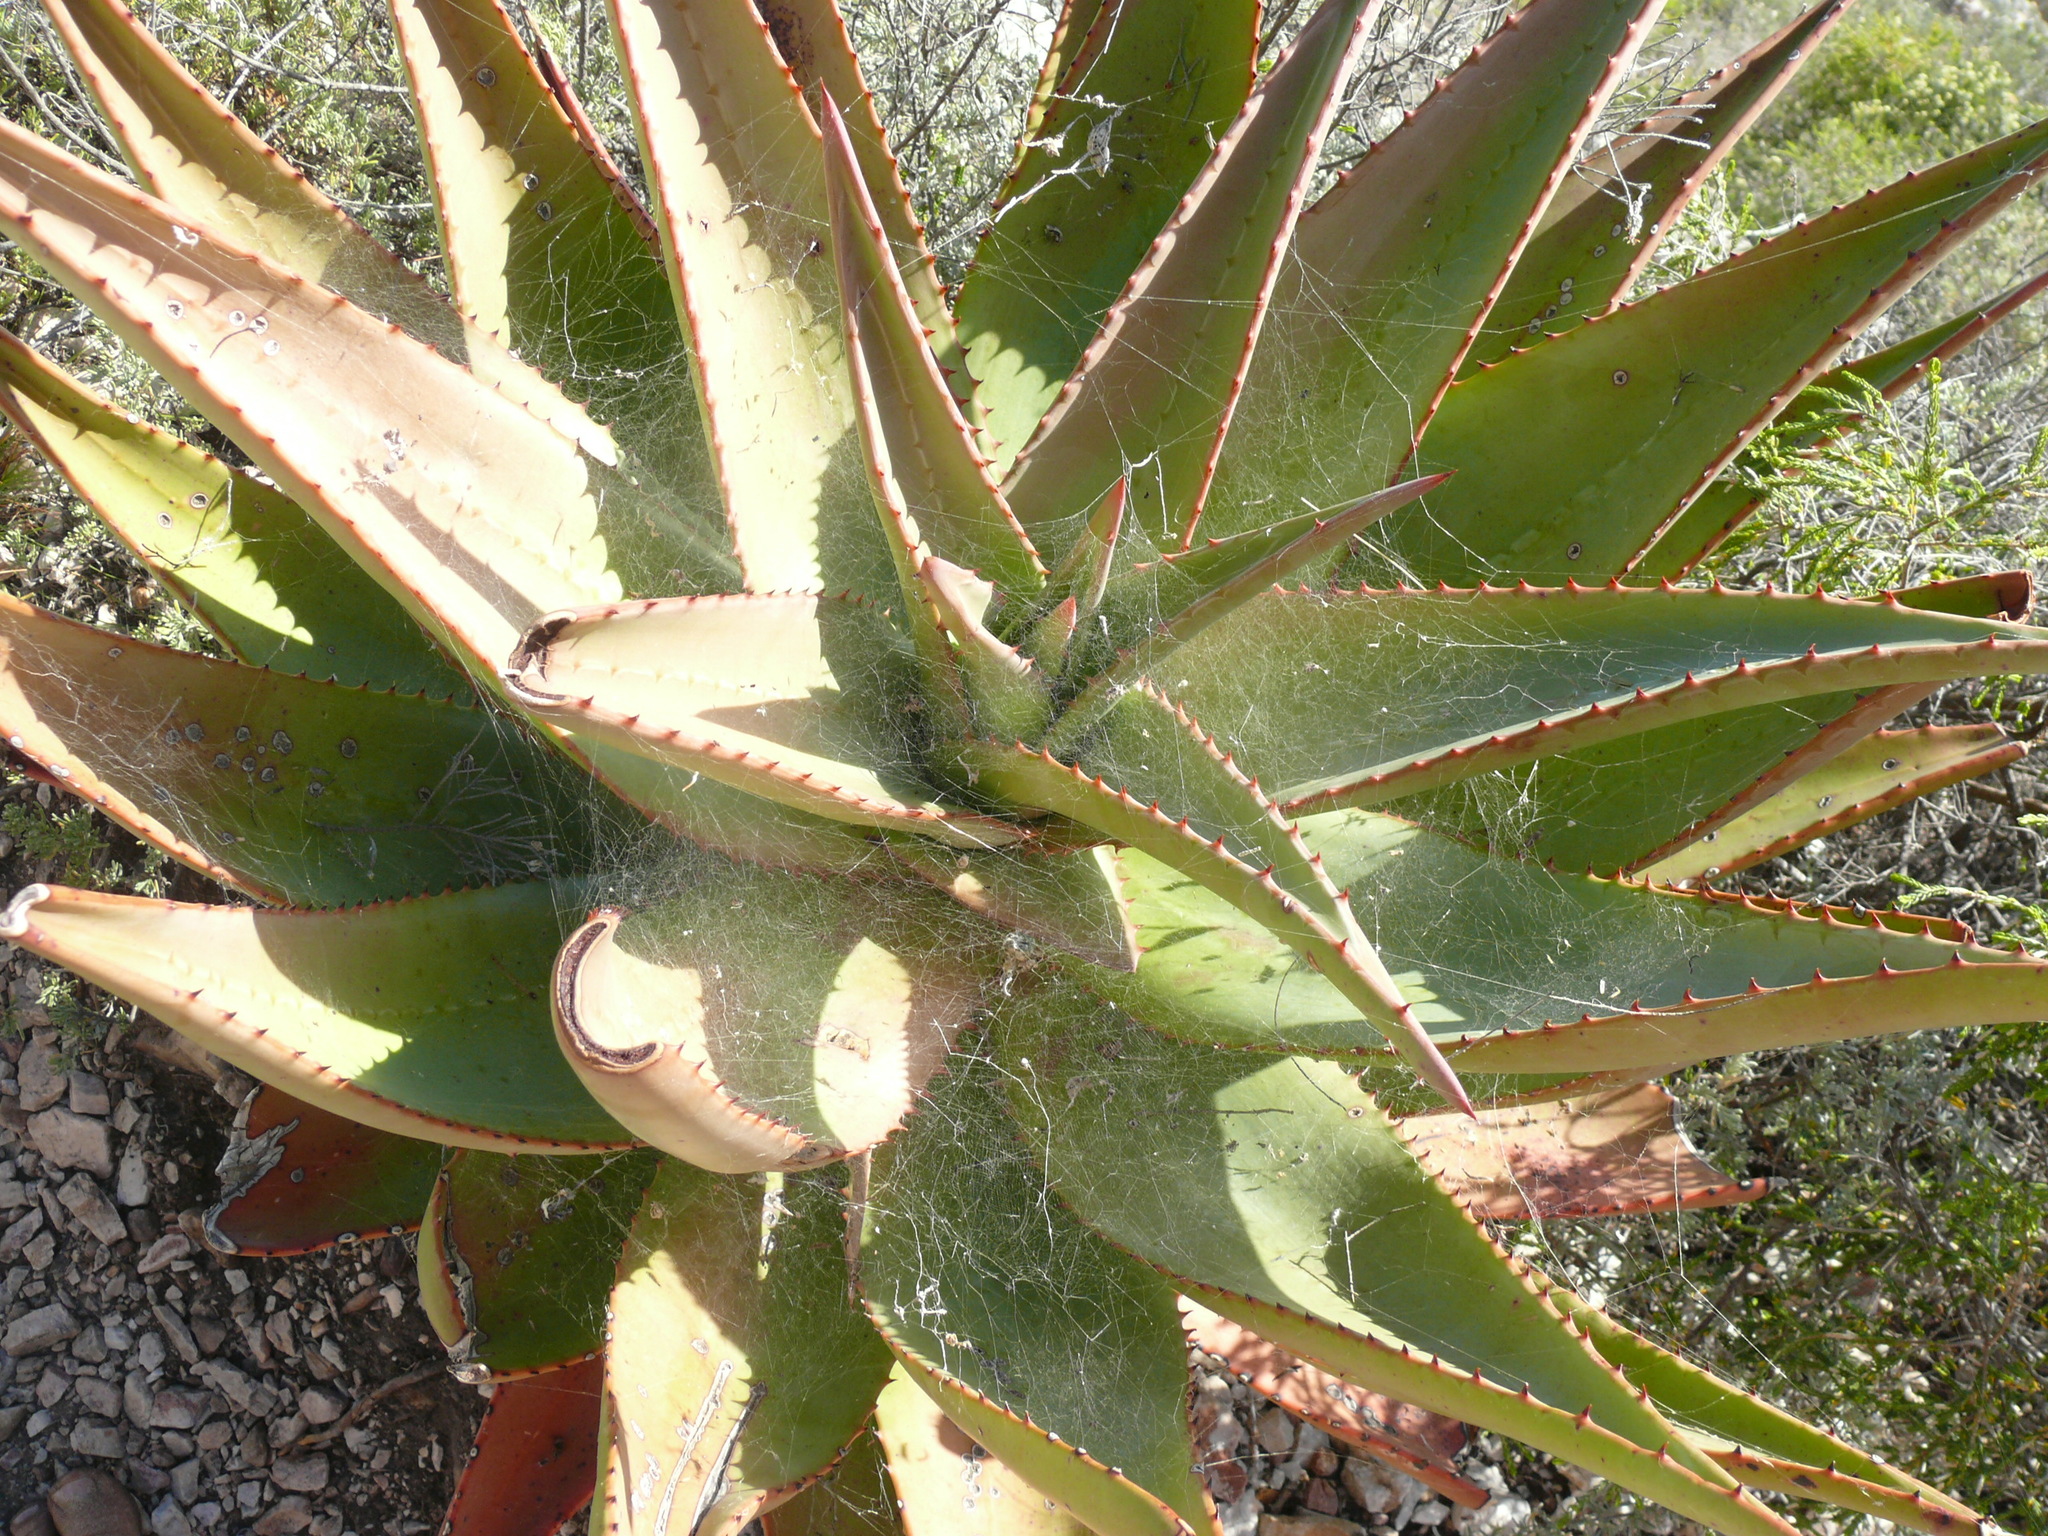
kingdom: Animalia
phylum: Arthropoda
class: Arachnida
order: Araneae
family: Araneidae
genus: Cyrtophora
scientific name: Cyrtophora citricola
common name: Orb weavers
